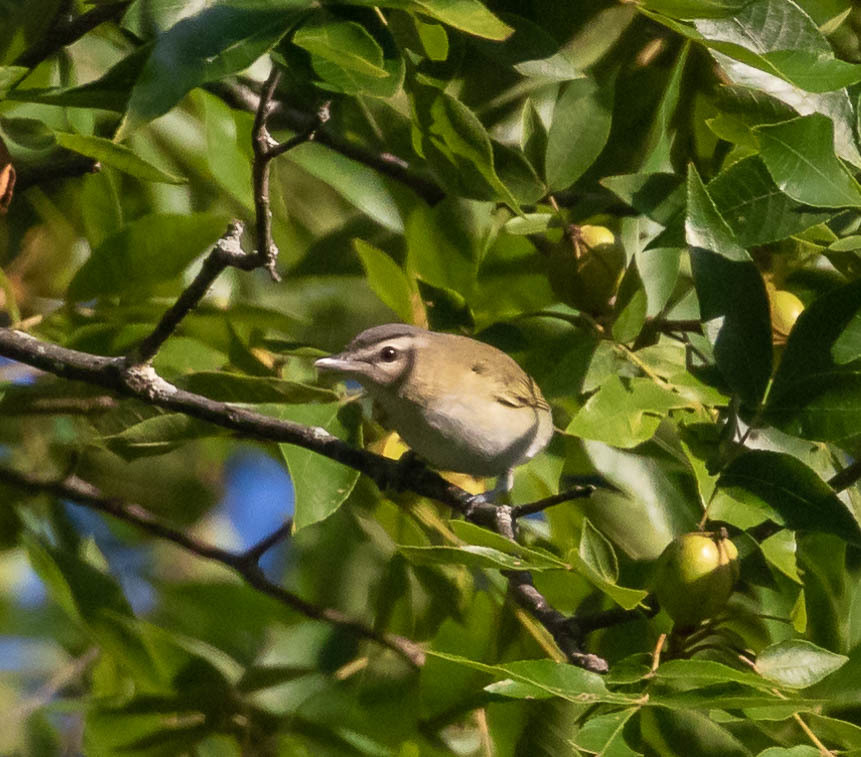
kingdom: Animalia
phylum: Chordata
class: Aves
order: Passeriformes
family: Vireonidae
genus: Vireo
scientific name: Vireo olivaceus
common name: Red-eyed vireo
